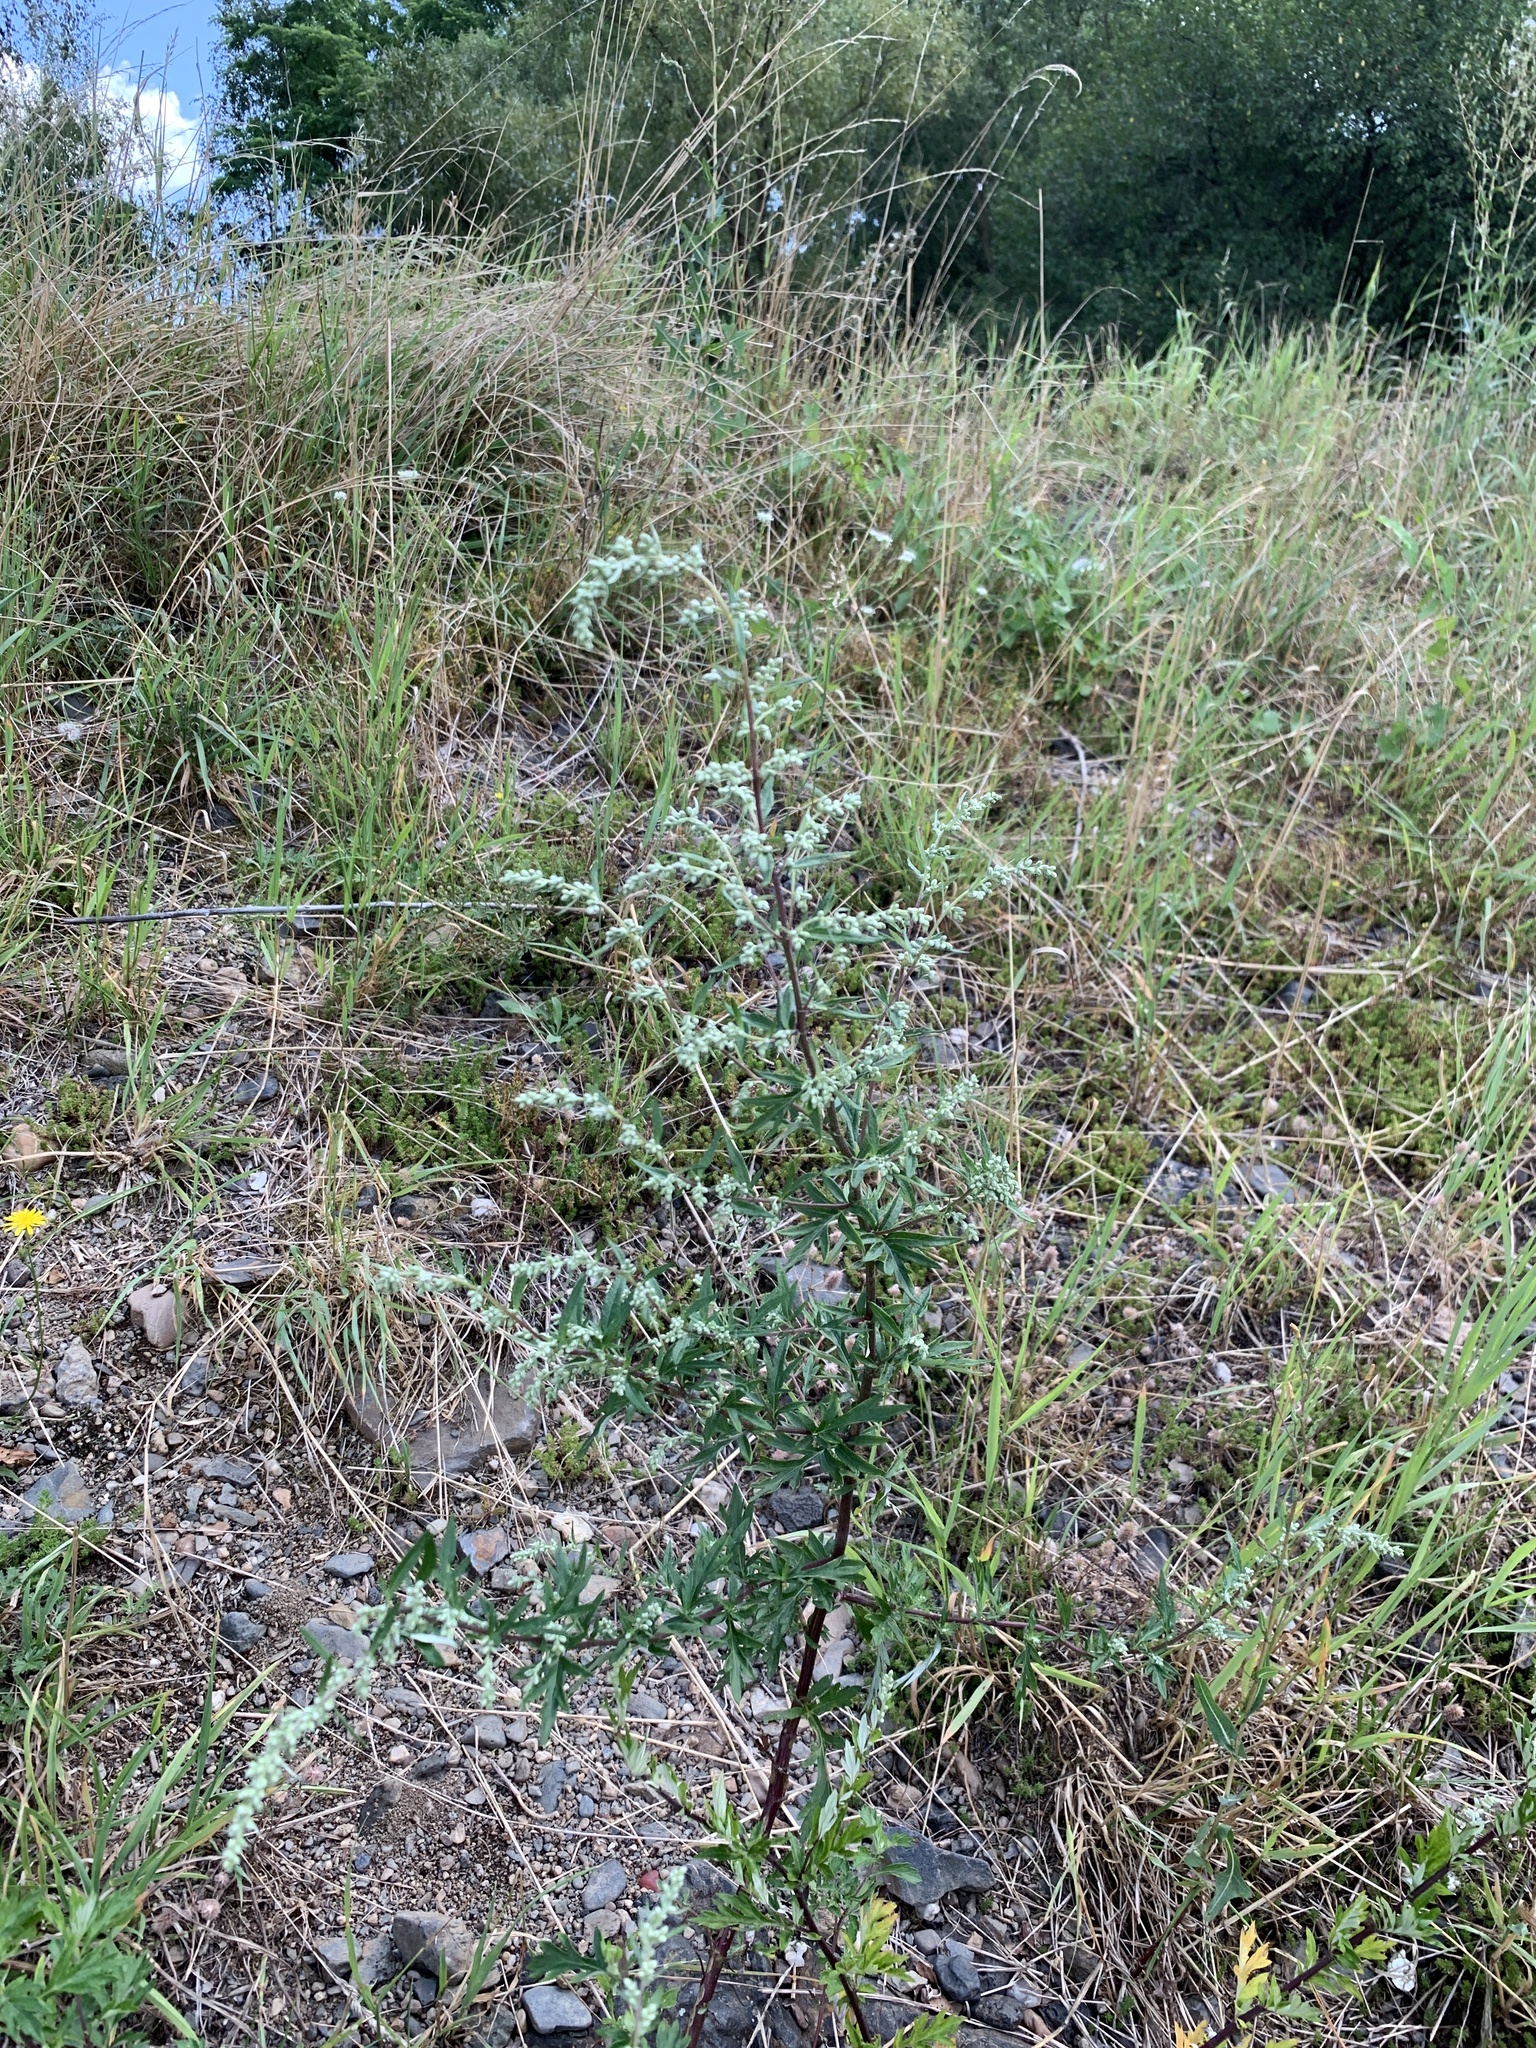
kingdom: Plantae
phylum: Tracheophyta
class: Magnoliopsida
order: Asterales
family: Asteraceae
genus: Artemisia
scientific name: Artemisia vulgaris
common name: Mugwort
